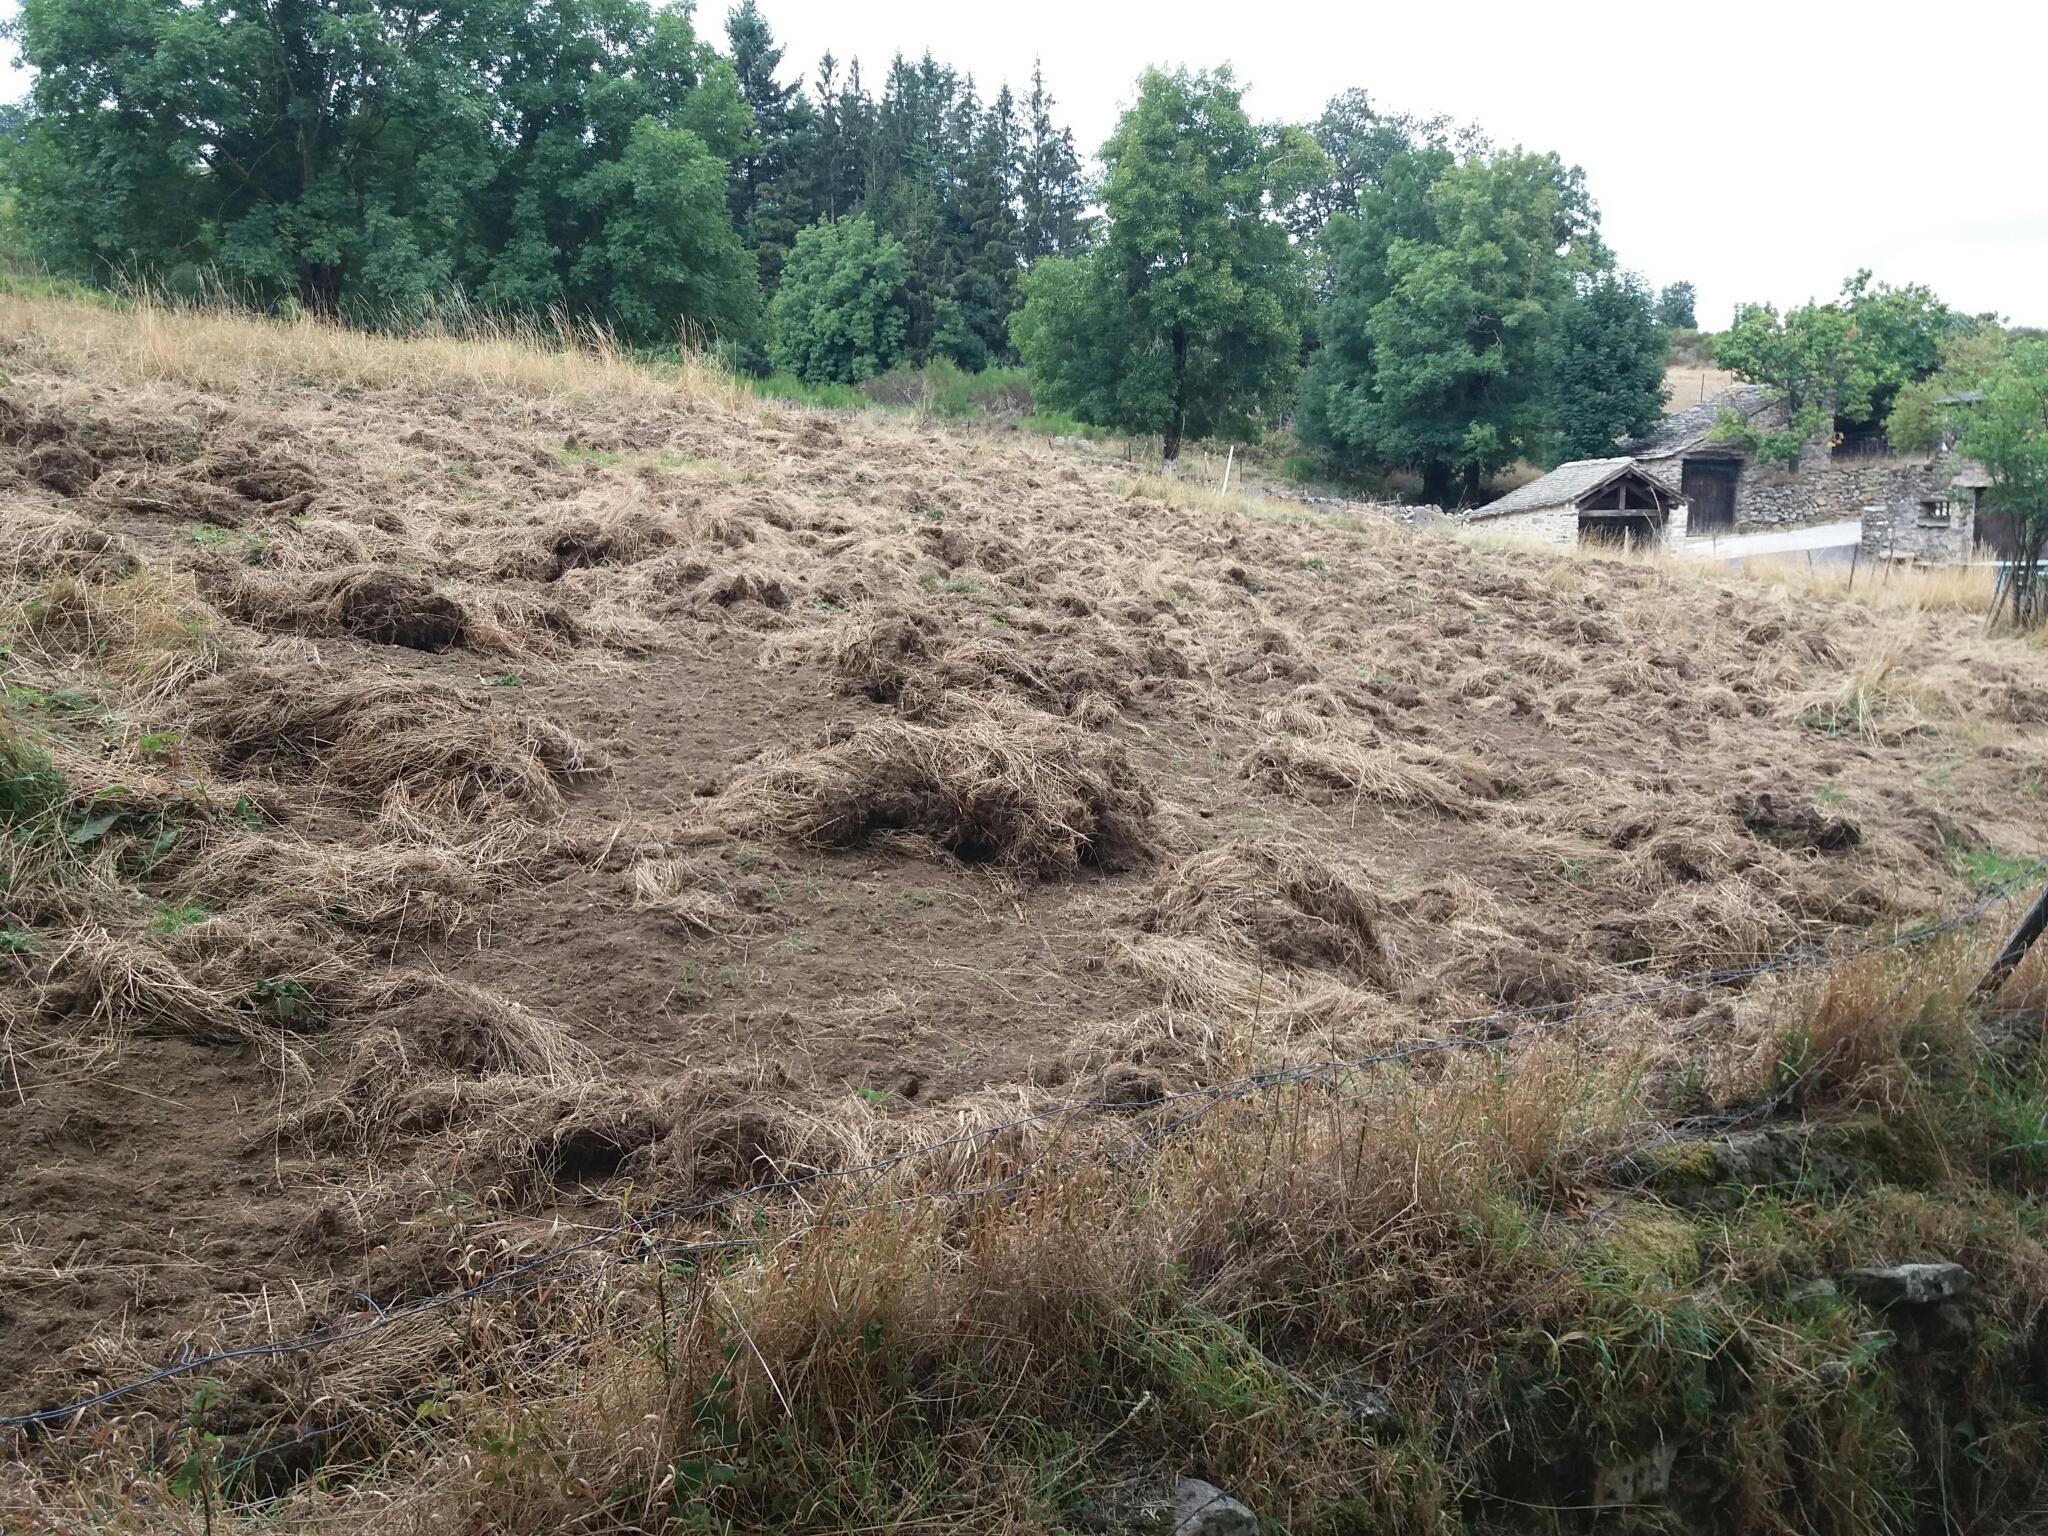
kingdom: Animalia
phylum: Chordata
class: Mammalia
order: Artiodactyla
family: Suidae
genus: Sus
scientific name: Sus scrofa
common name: Wild boar
